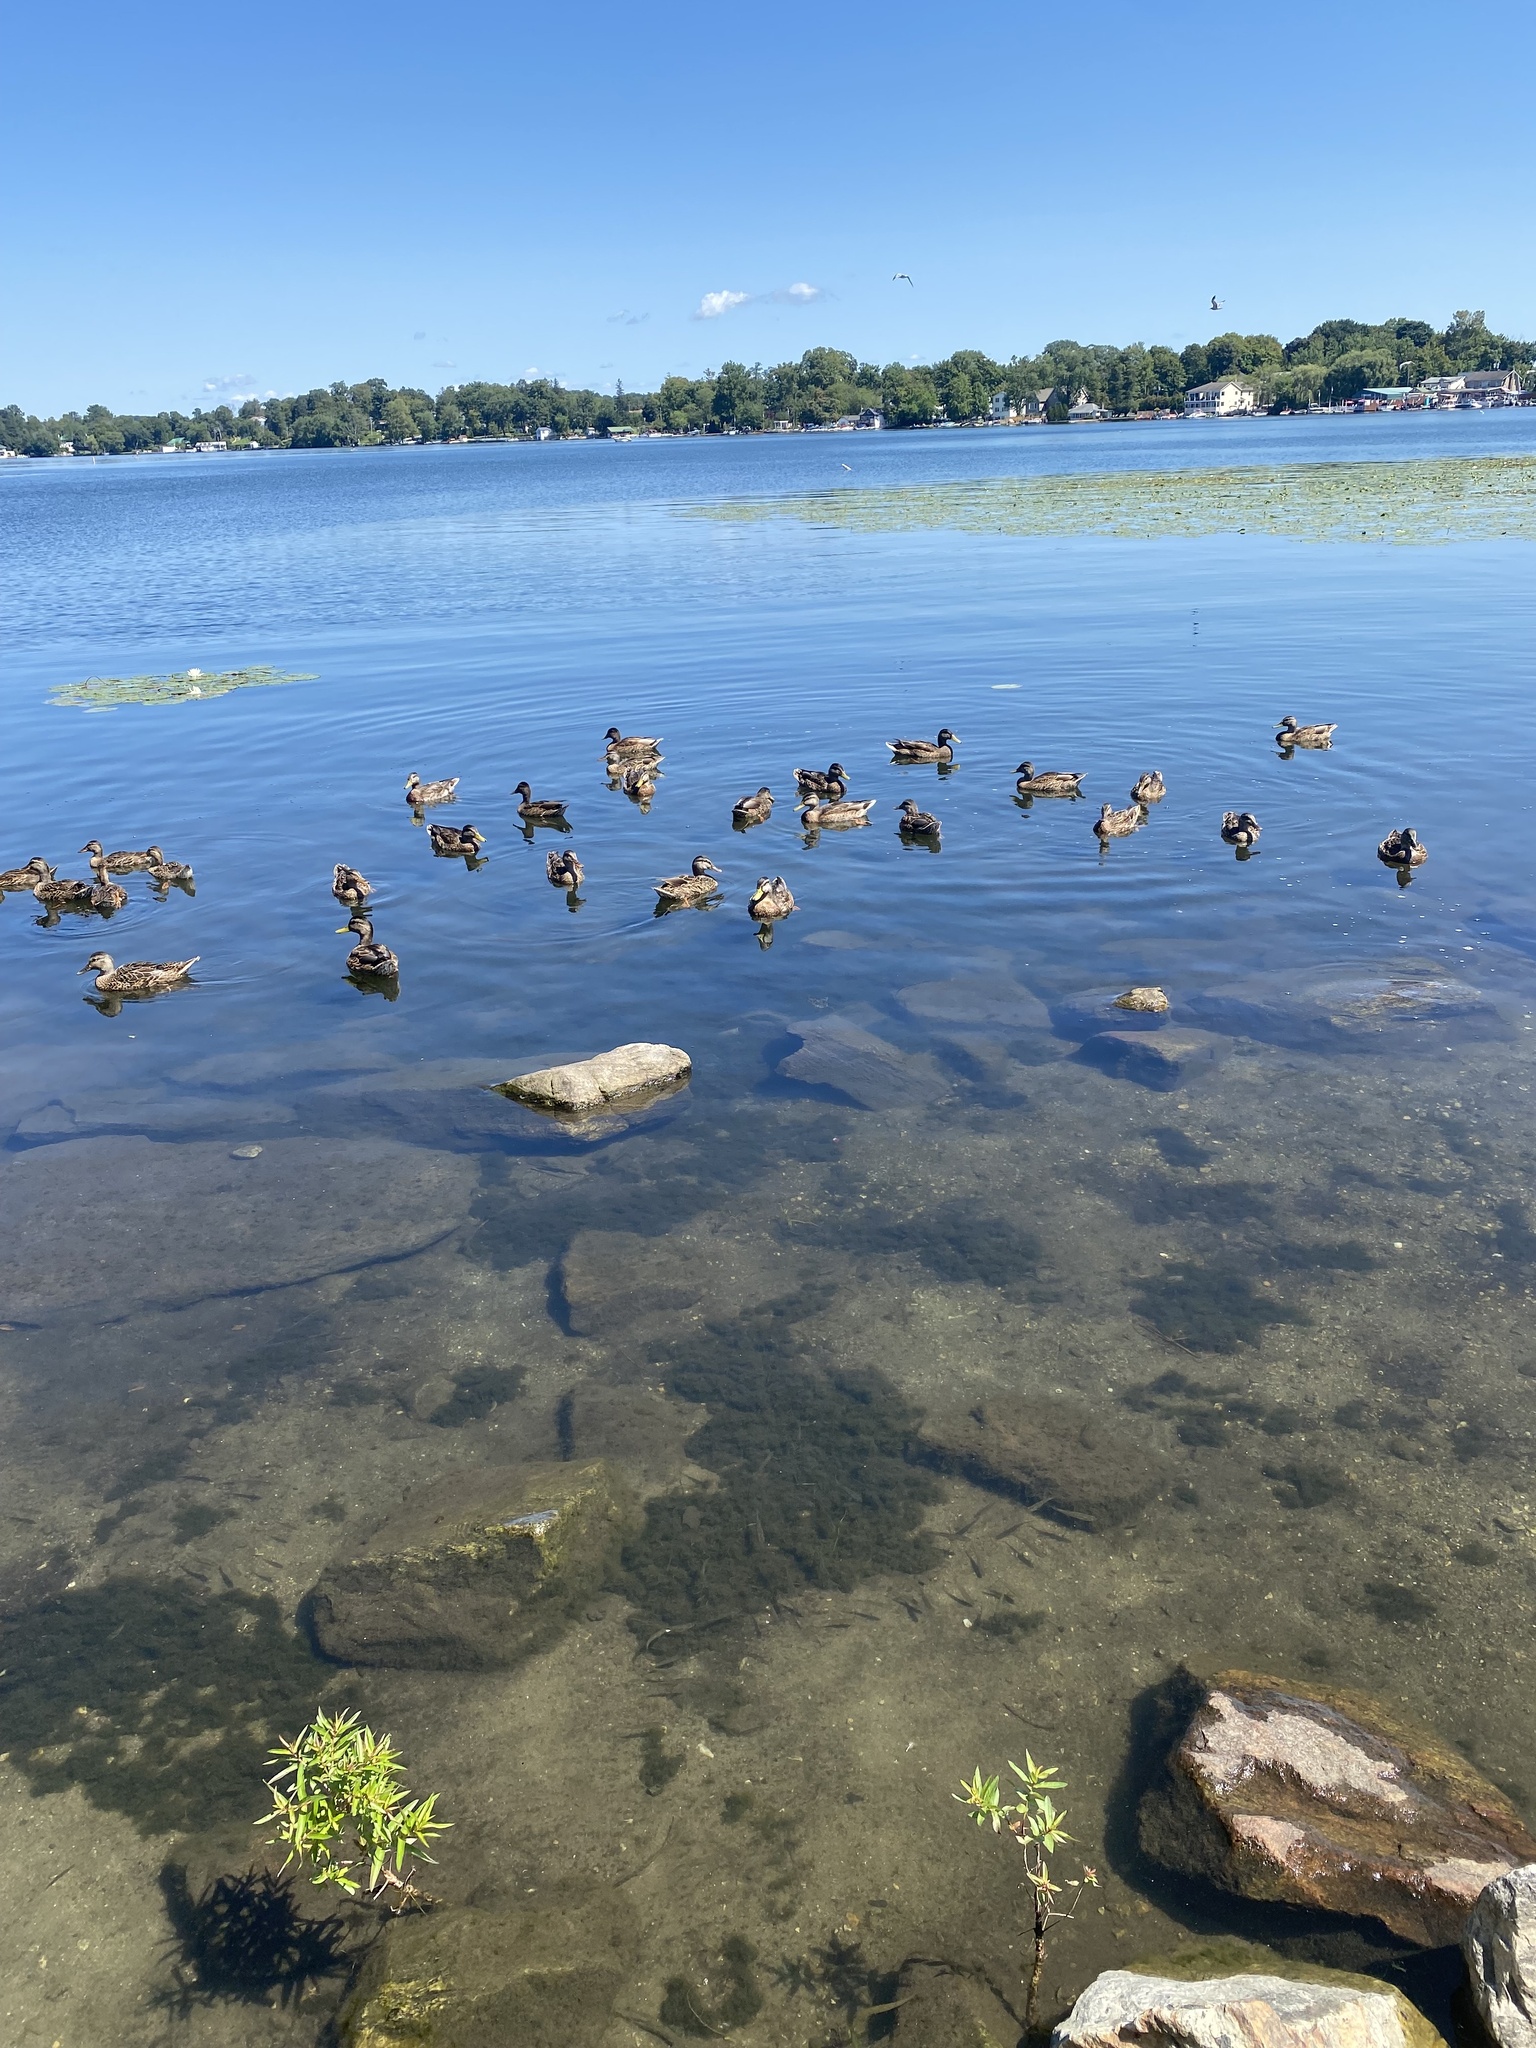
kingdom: Animalia
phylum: Chordata
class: Aves
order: Anseriformes
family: Anatidae
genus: Anas
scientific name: Anas platyrhynchos
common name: Mallard
